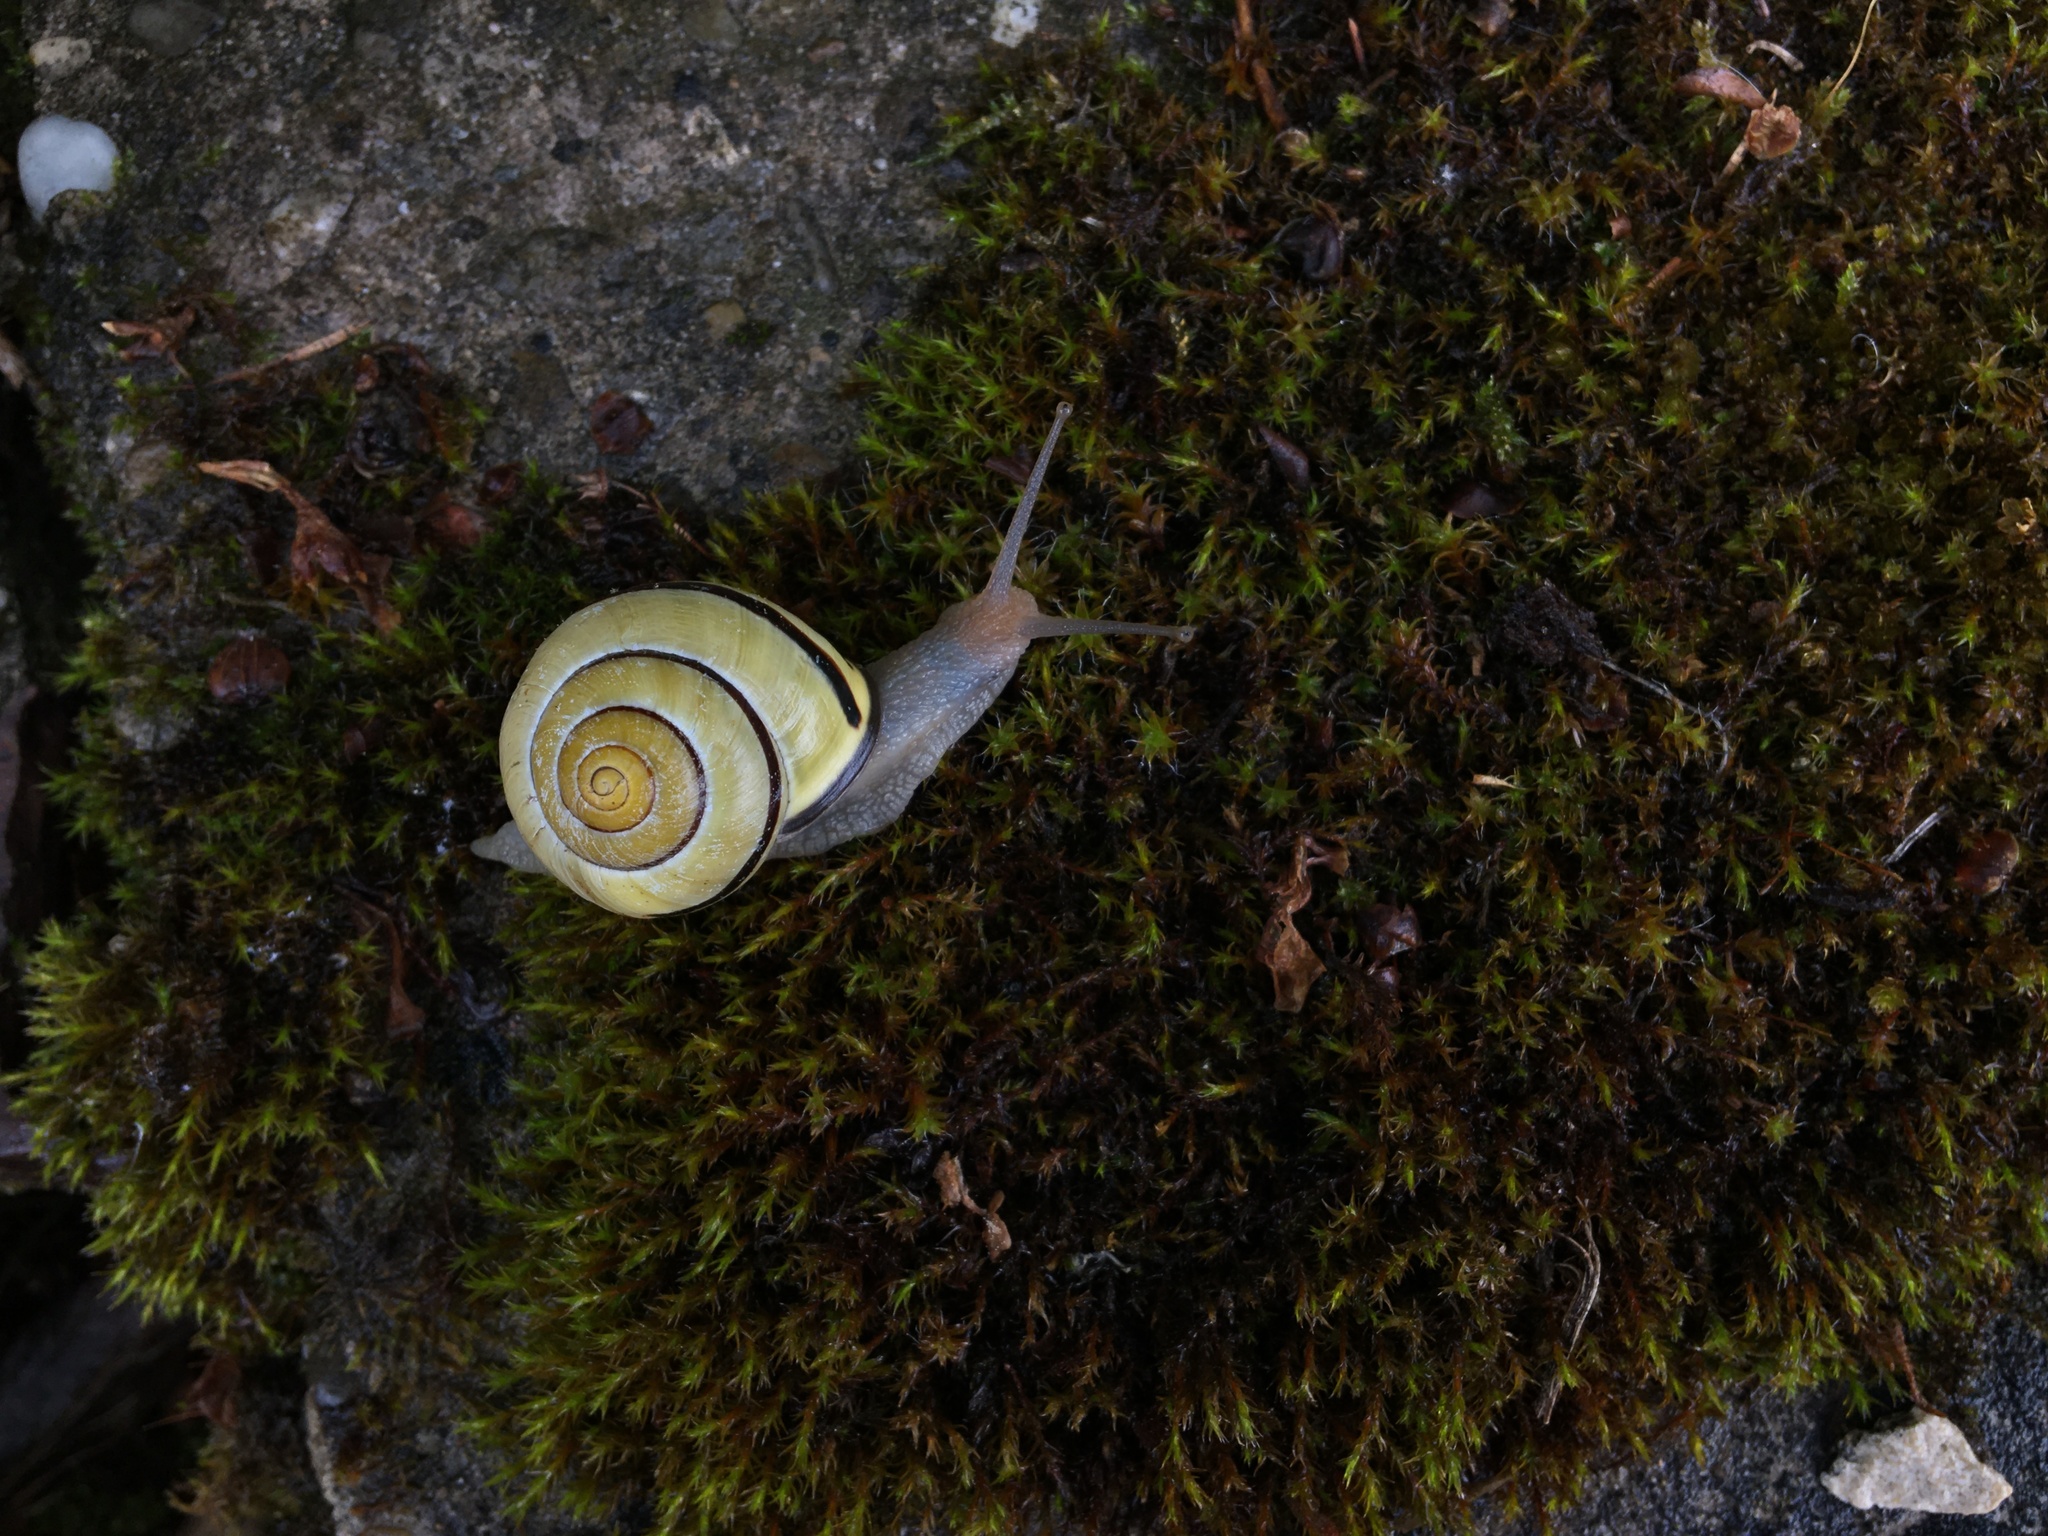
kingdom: Animalia
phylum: Mollusca
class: Gastropoda
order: Stylommatophora
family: Helicidae
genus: Cepaea
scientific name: Cepaea nemoralis
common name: Grovesnail
